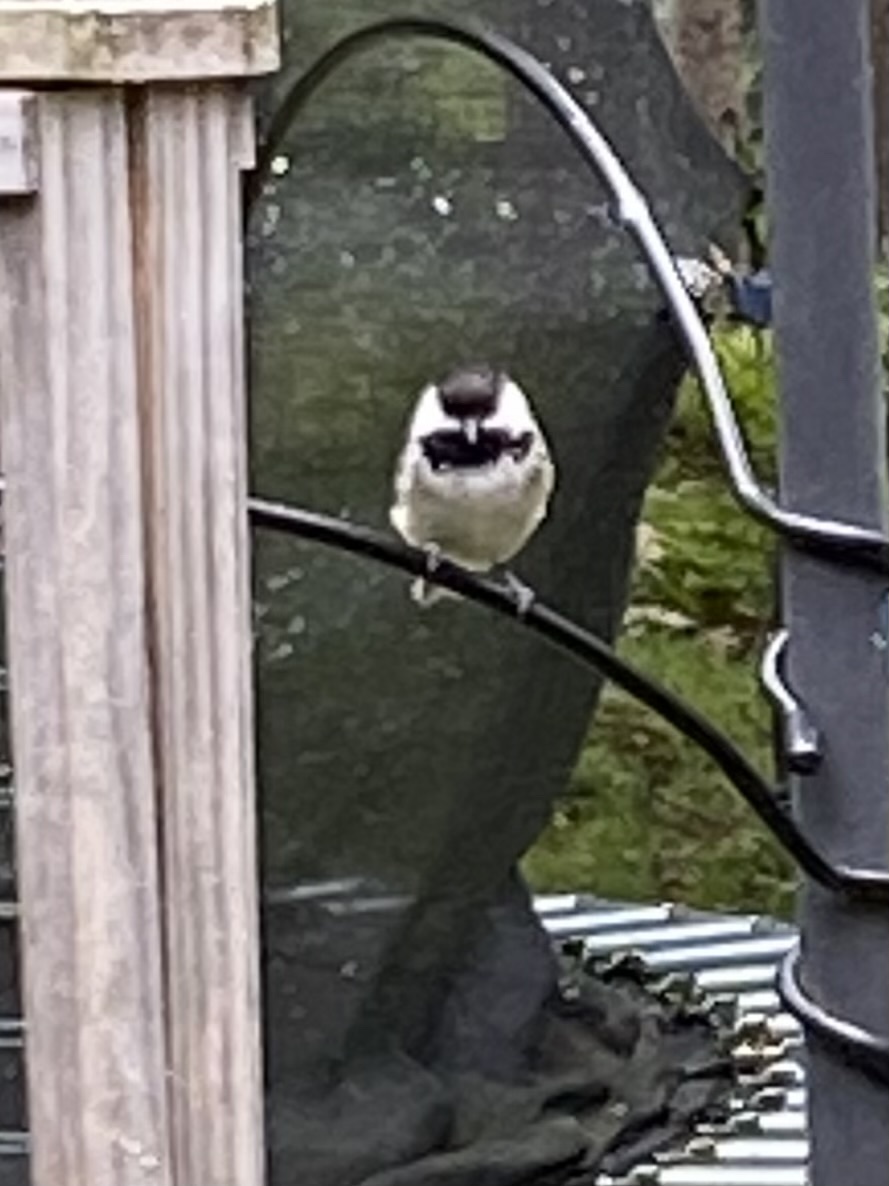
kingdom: Animalia
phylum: Chordata
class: Aves
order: Passeriformes
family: Paridae
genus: Poecile
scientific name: Poecile atricapillus
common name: Black-capped chickadee
